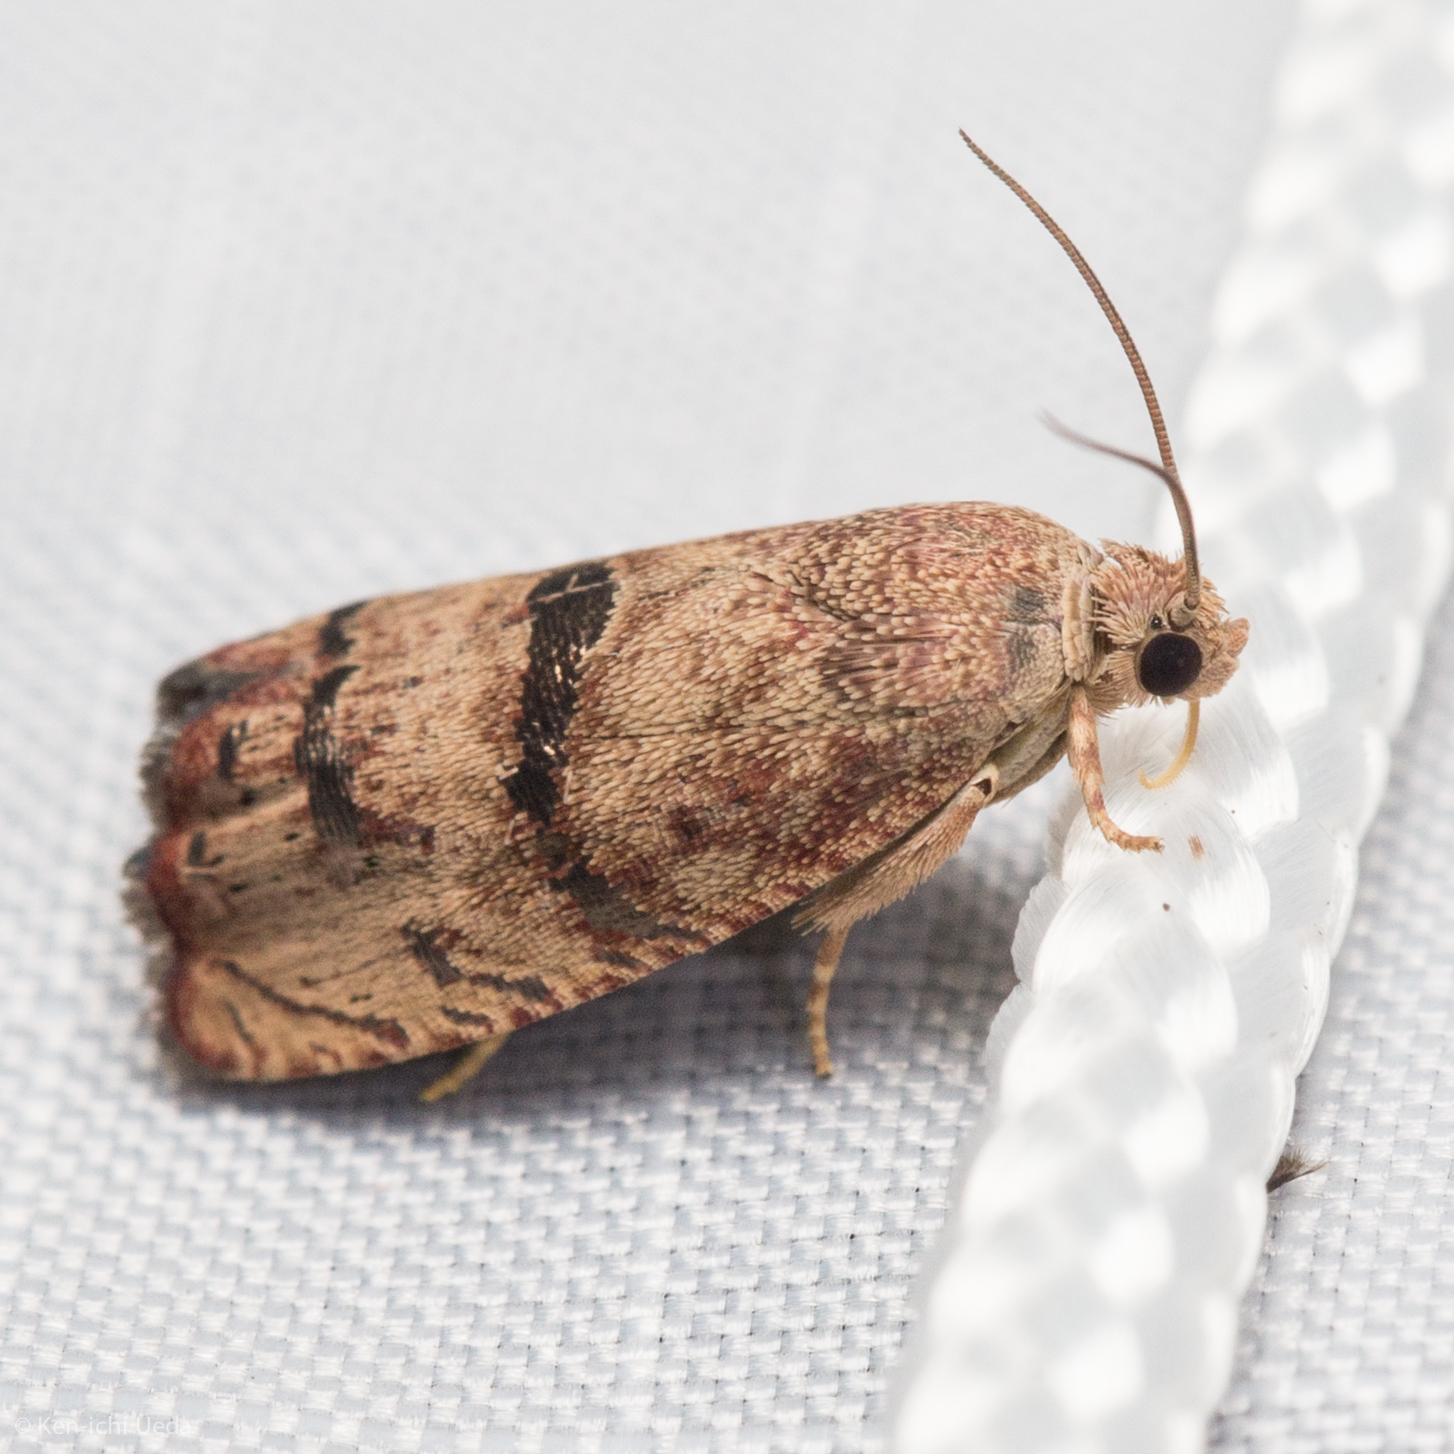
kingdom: Animalia
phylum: Arthropoda
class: Insecta
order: Lepidoptera
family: Tortricidae
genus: Cydia
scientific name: Cydia latiferreana
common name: Filbertworm moth
